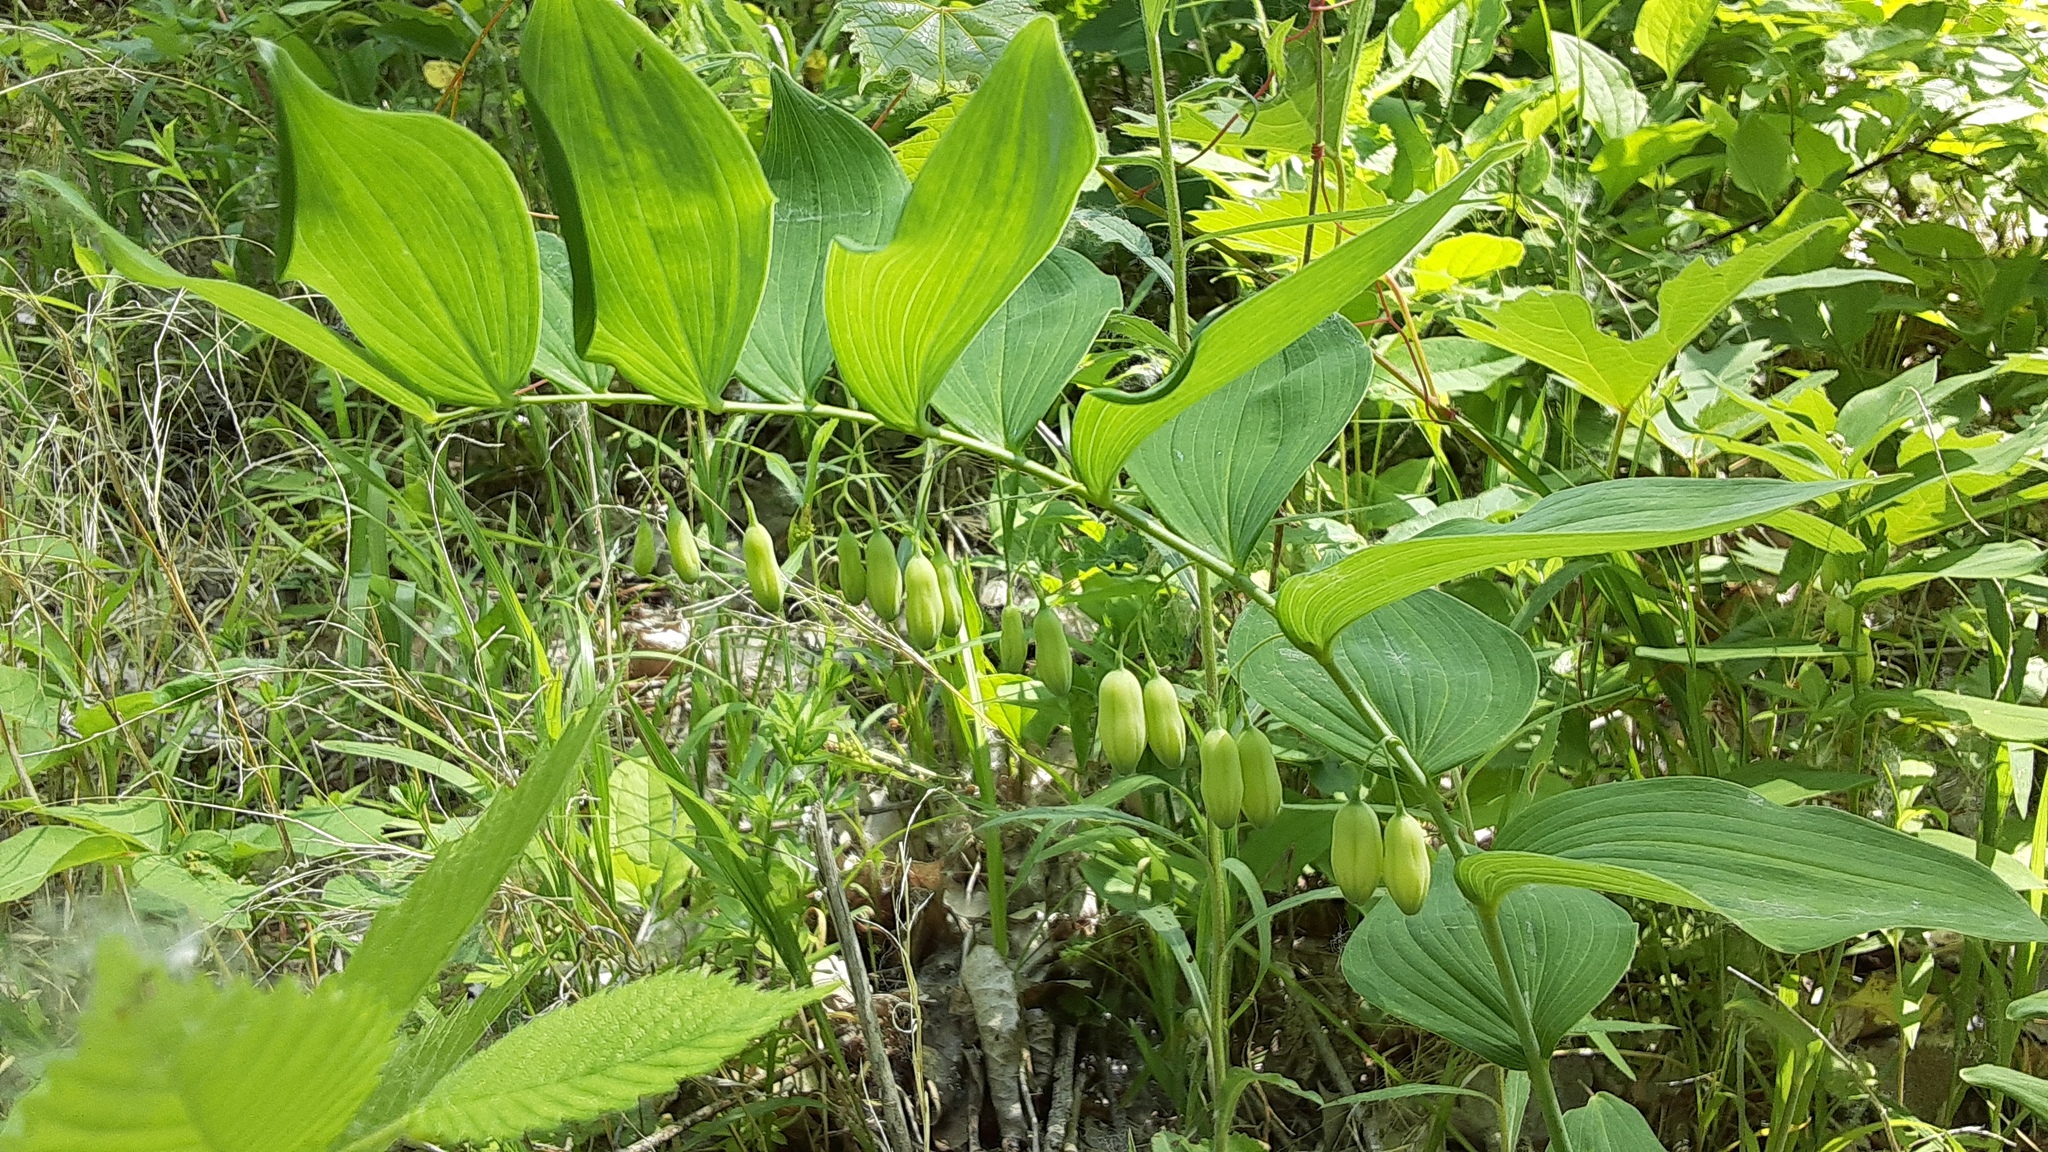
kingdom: Plantae
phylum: Tracheophyta
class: Liliopsida
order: Asparagales
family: Asparagaceae
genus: Polygonatum
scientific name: Polygonatum biflorum
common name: American solomon's-seal
